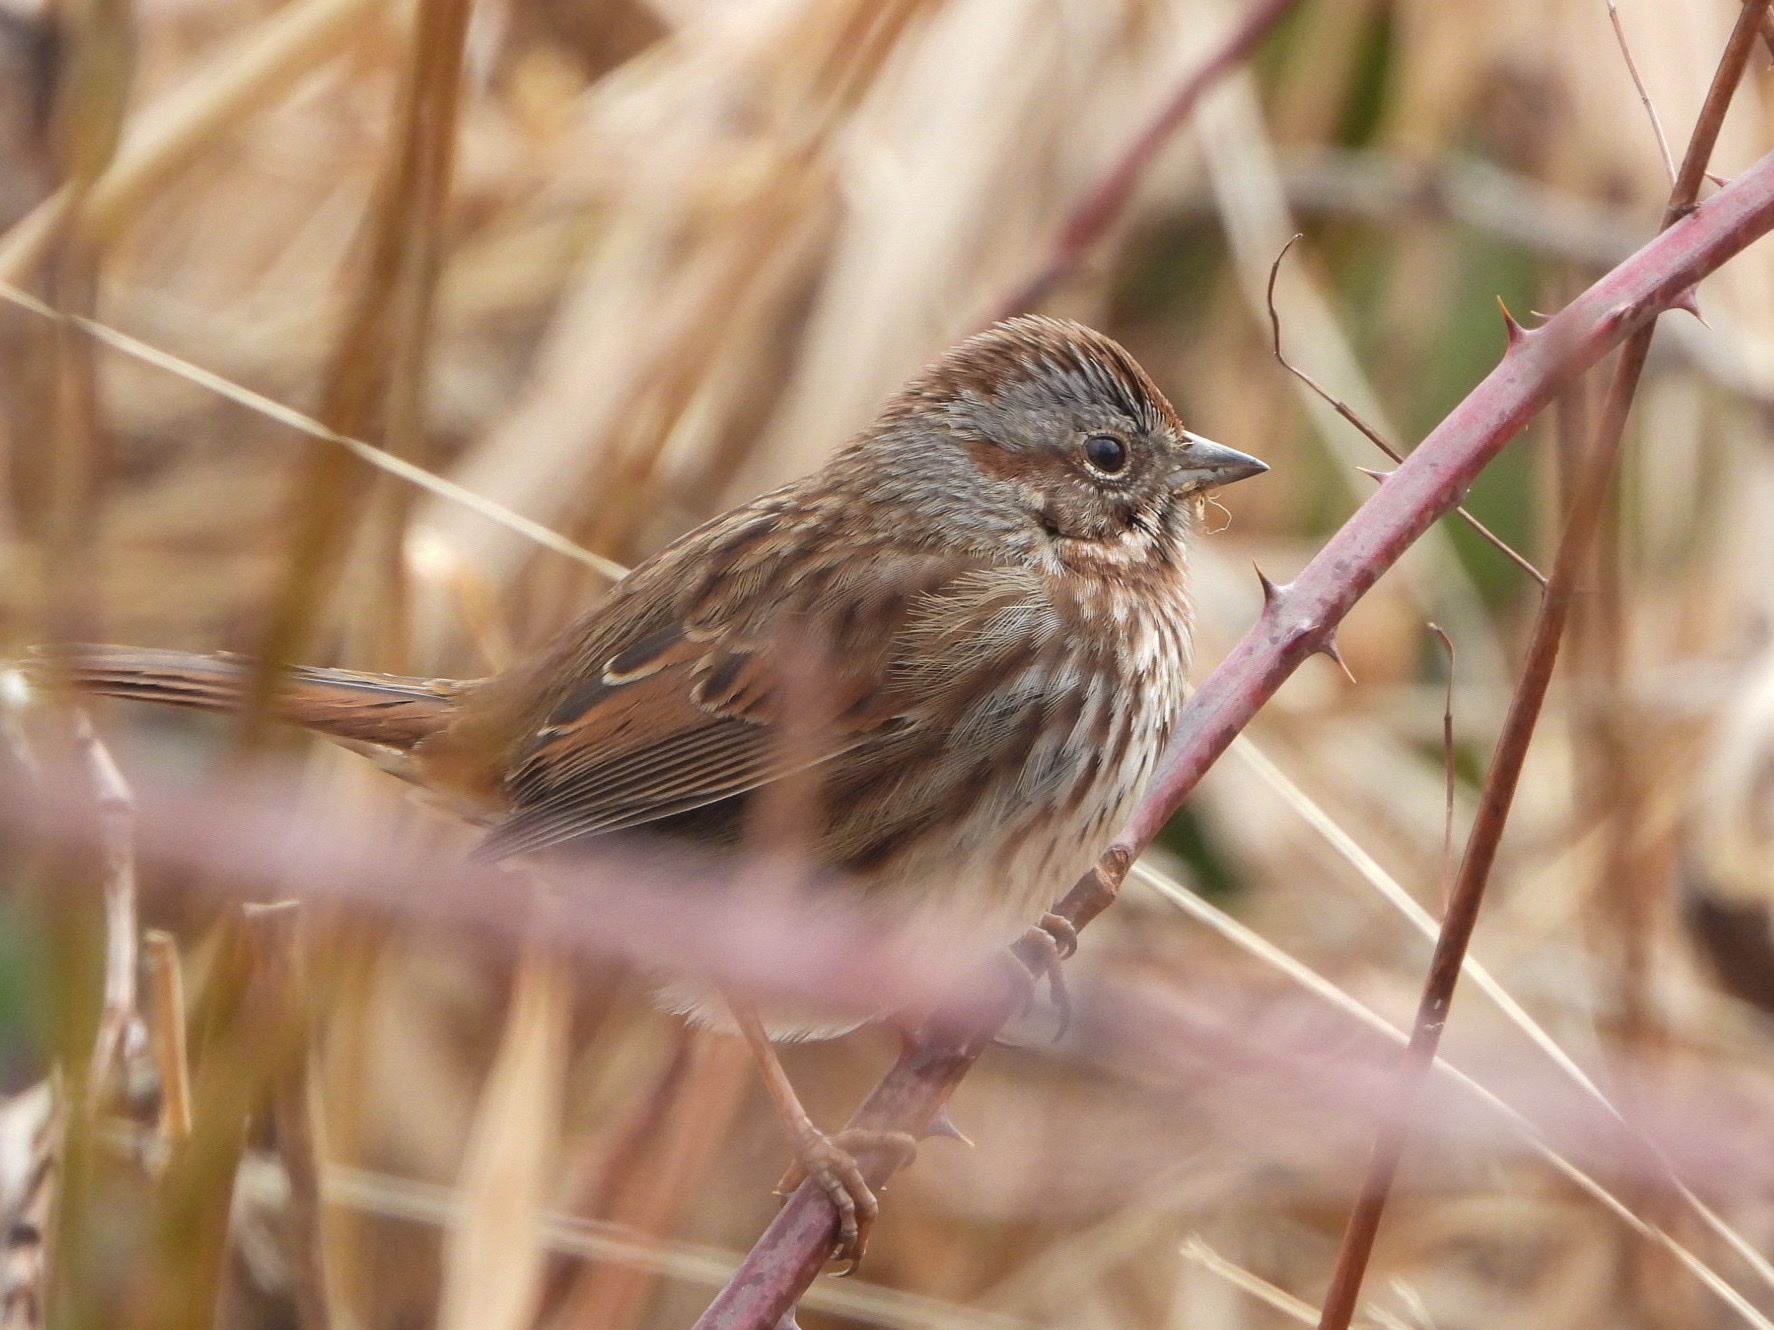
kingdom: Animalia
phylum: Chordata
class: Aves
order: Passeriformes
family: Passerellidae
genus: Melospiza
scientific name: Melospiza melodia
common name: Song sparrow
